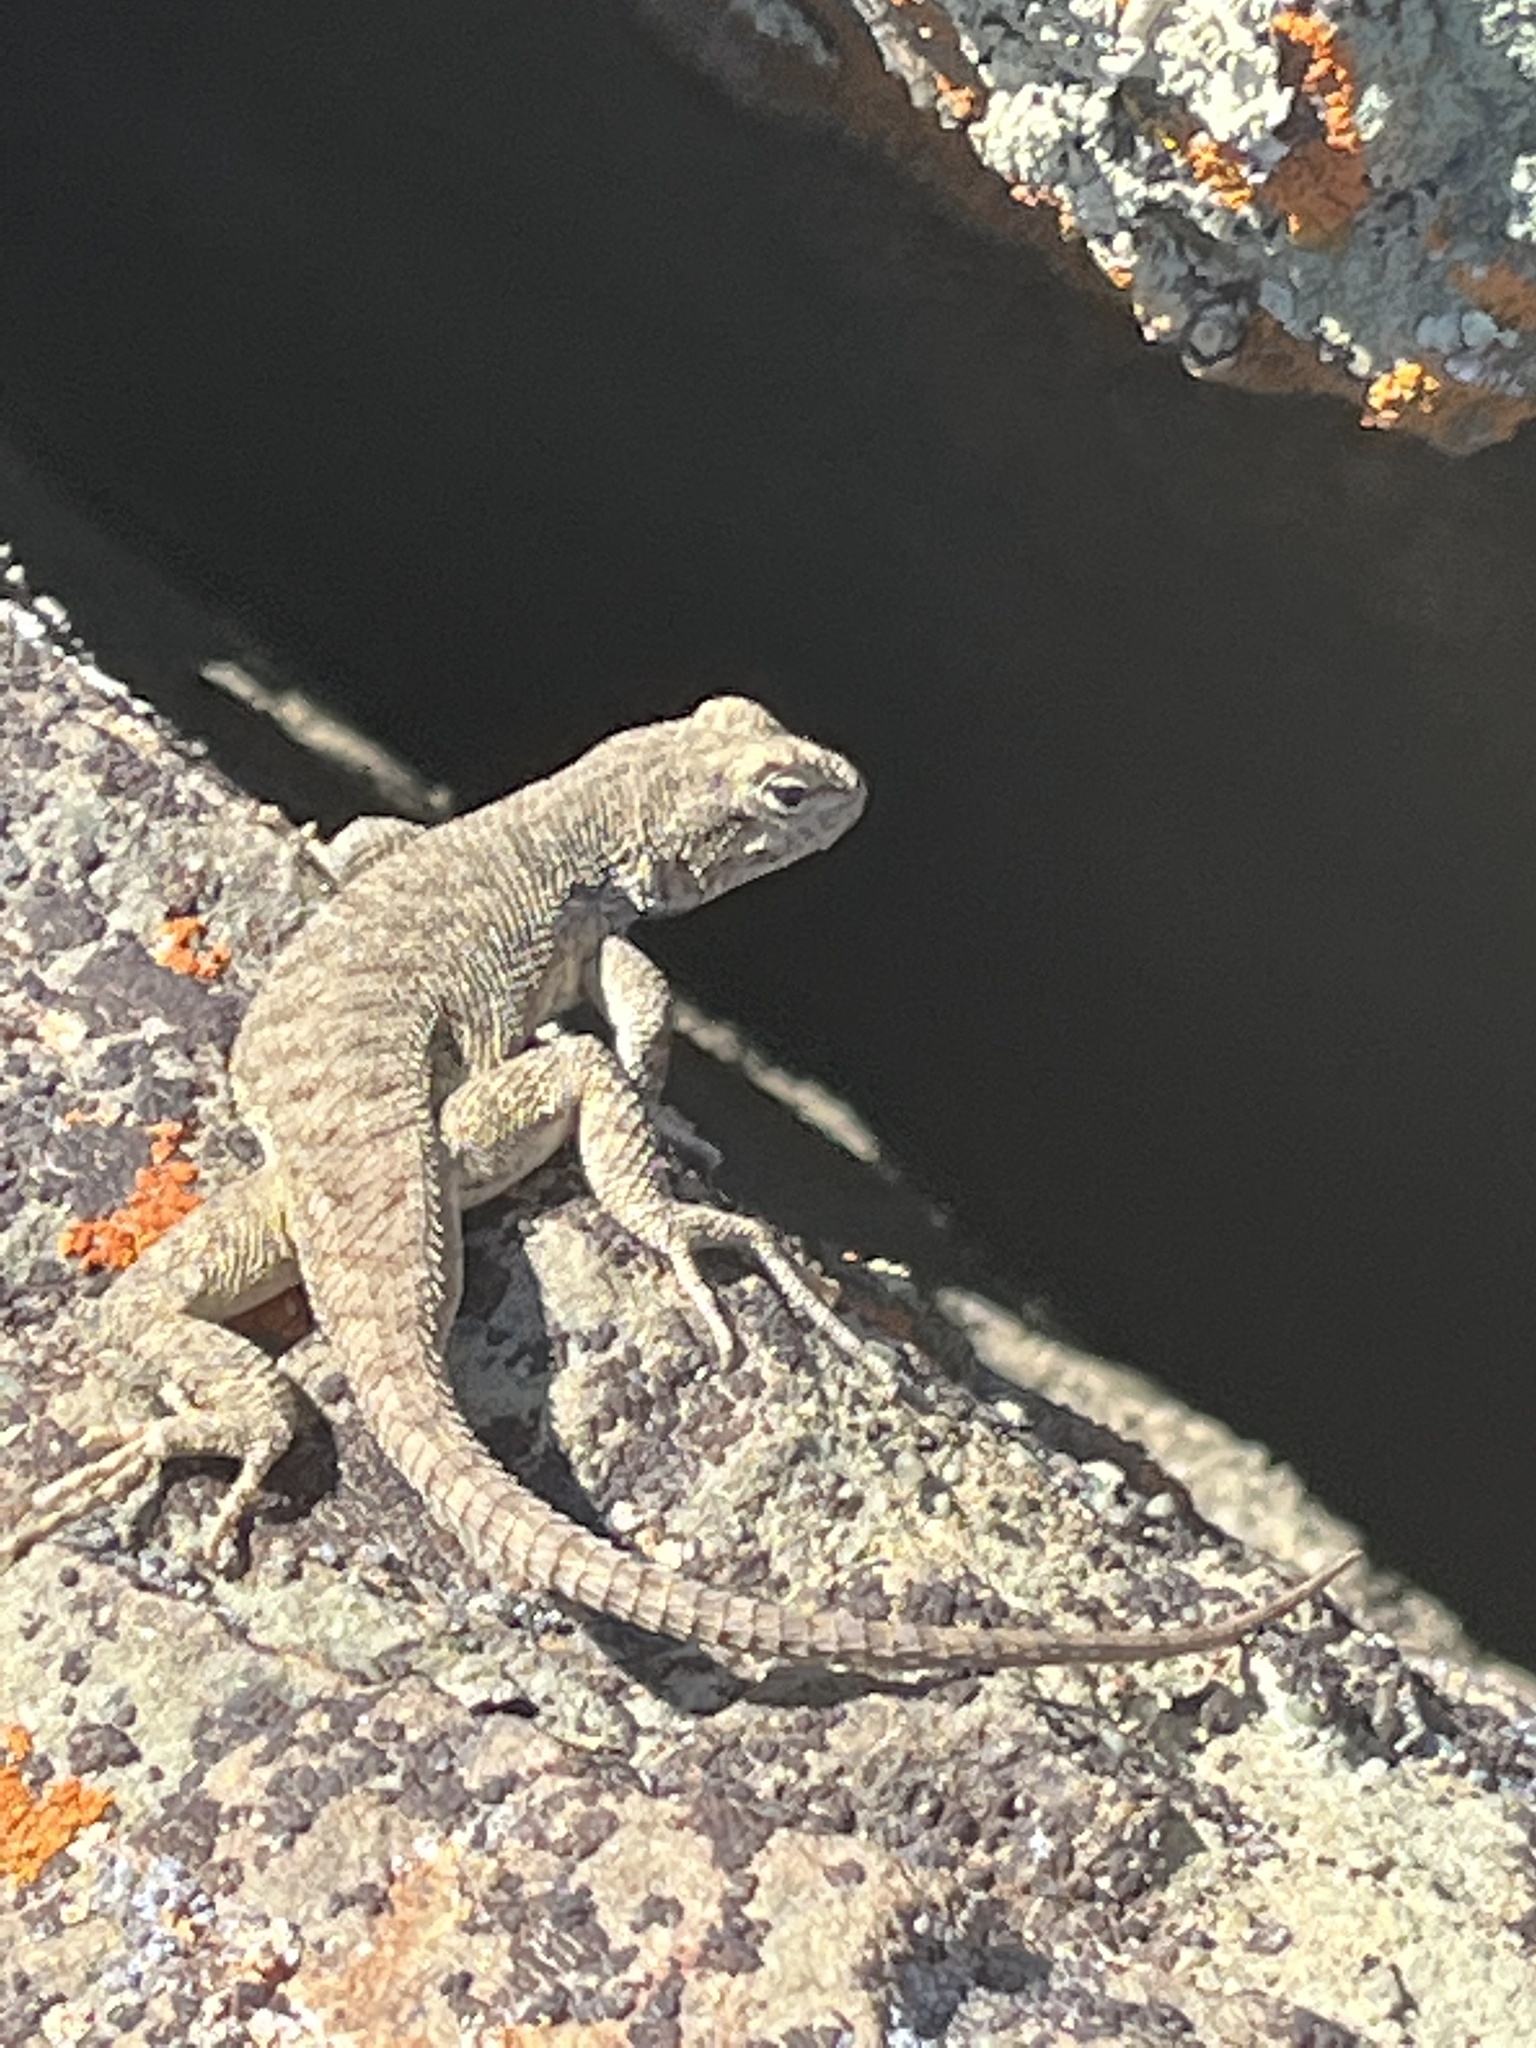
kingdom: Animalia
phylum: Chordata
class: Squamata
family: Phrynosomatidae
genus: Sceloporus
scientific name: Sceloporus tristichus
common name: Plateau fence lizard
